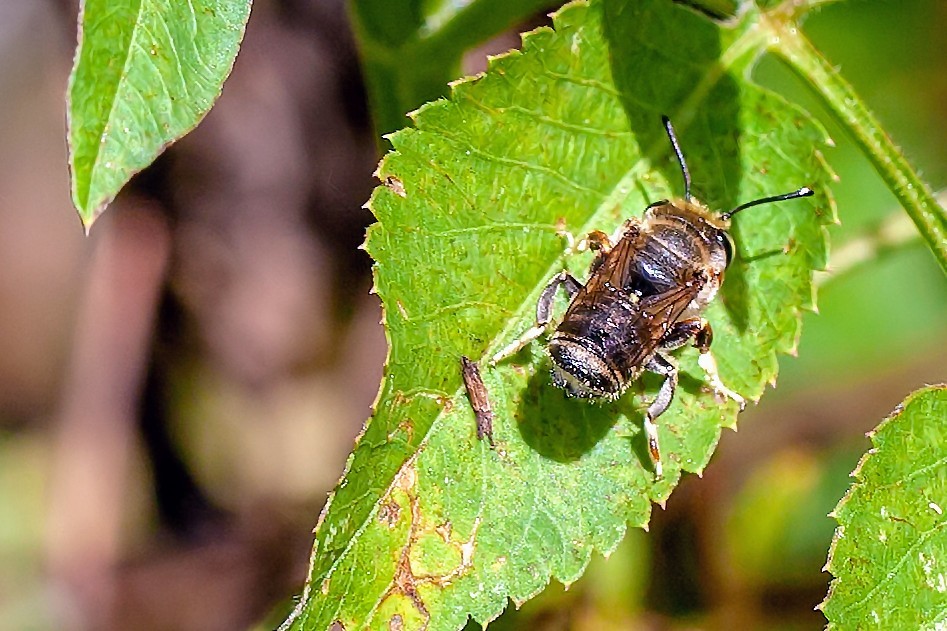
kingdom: Animalia
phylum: Arthropoda
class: Insecta
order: Hymenoptera
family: Megachilidae
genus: Megachile
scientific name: Megachile albitarsis
